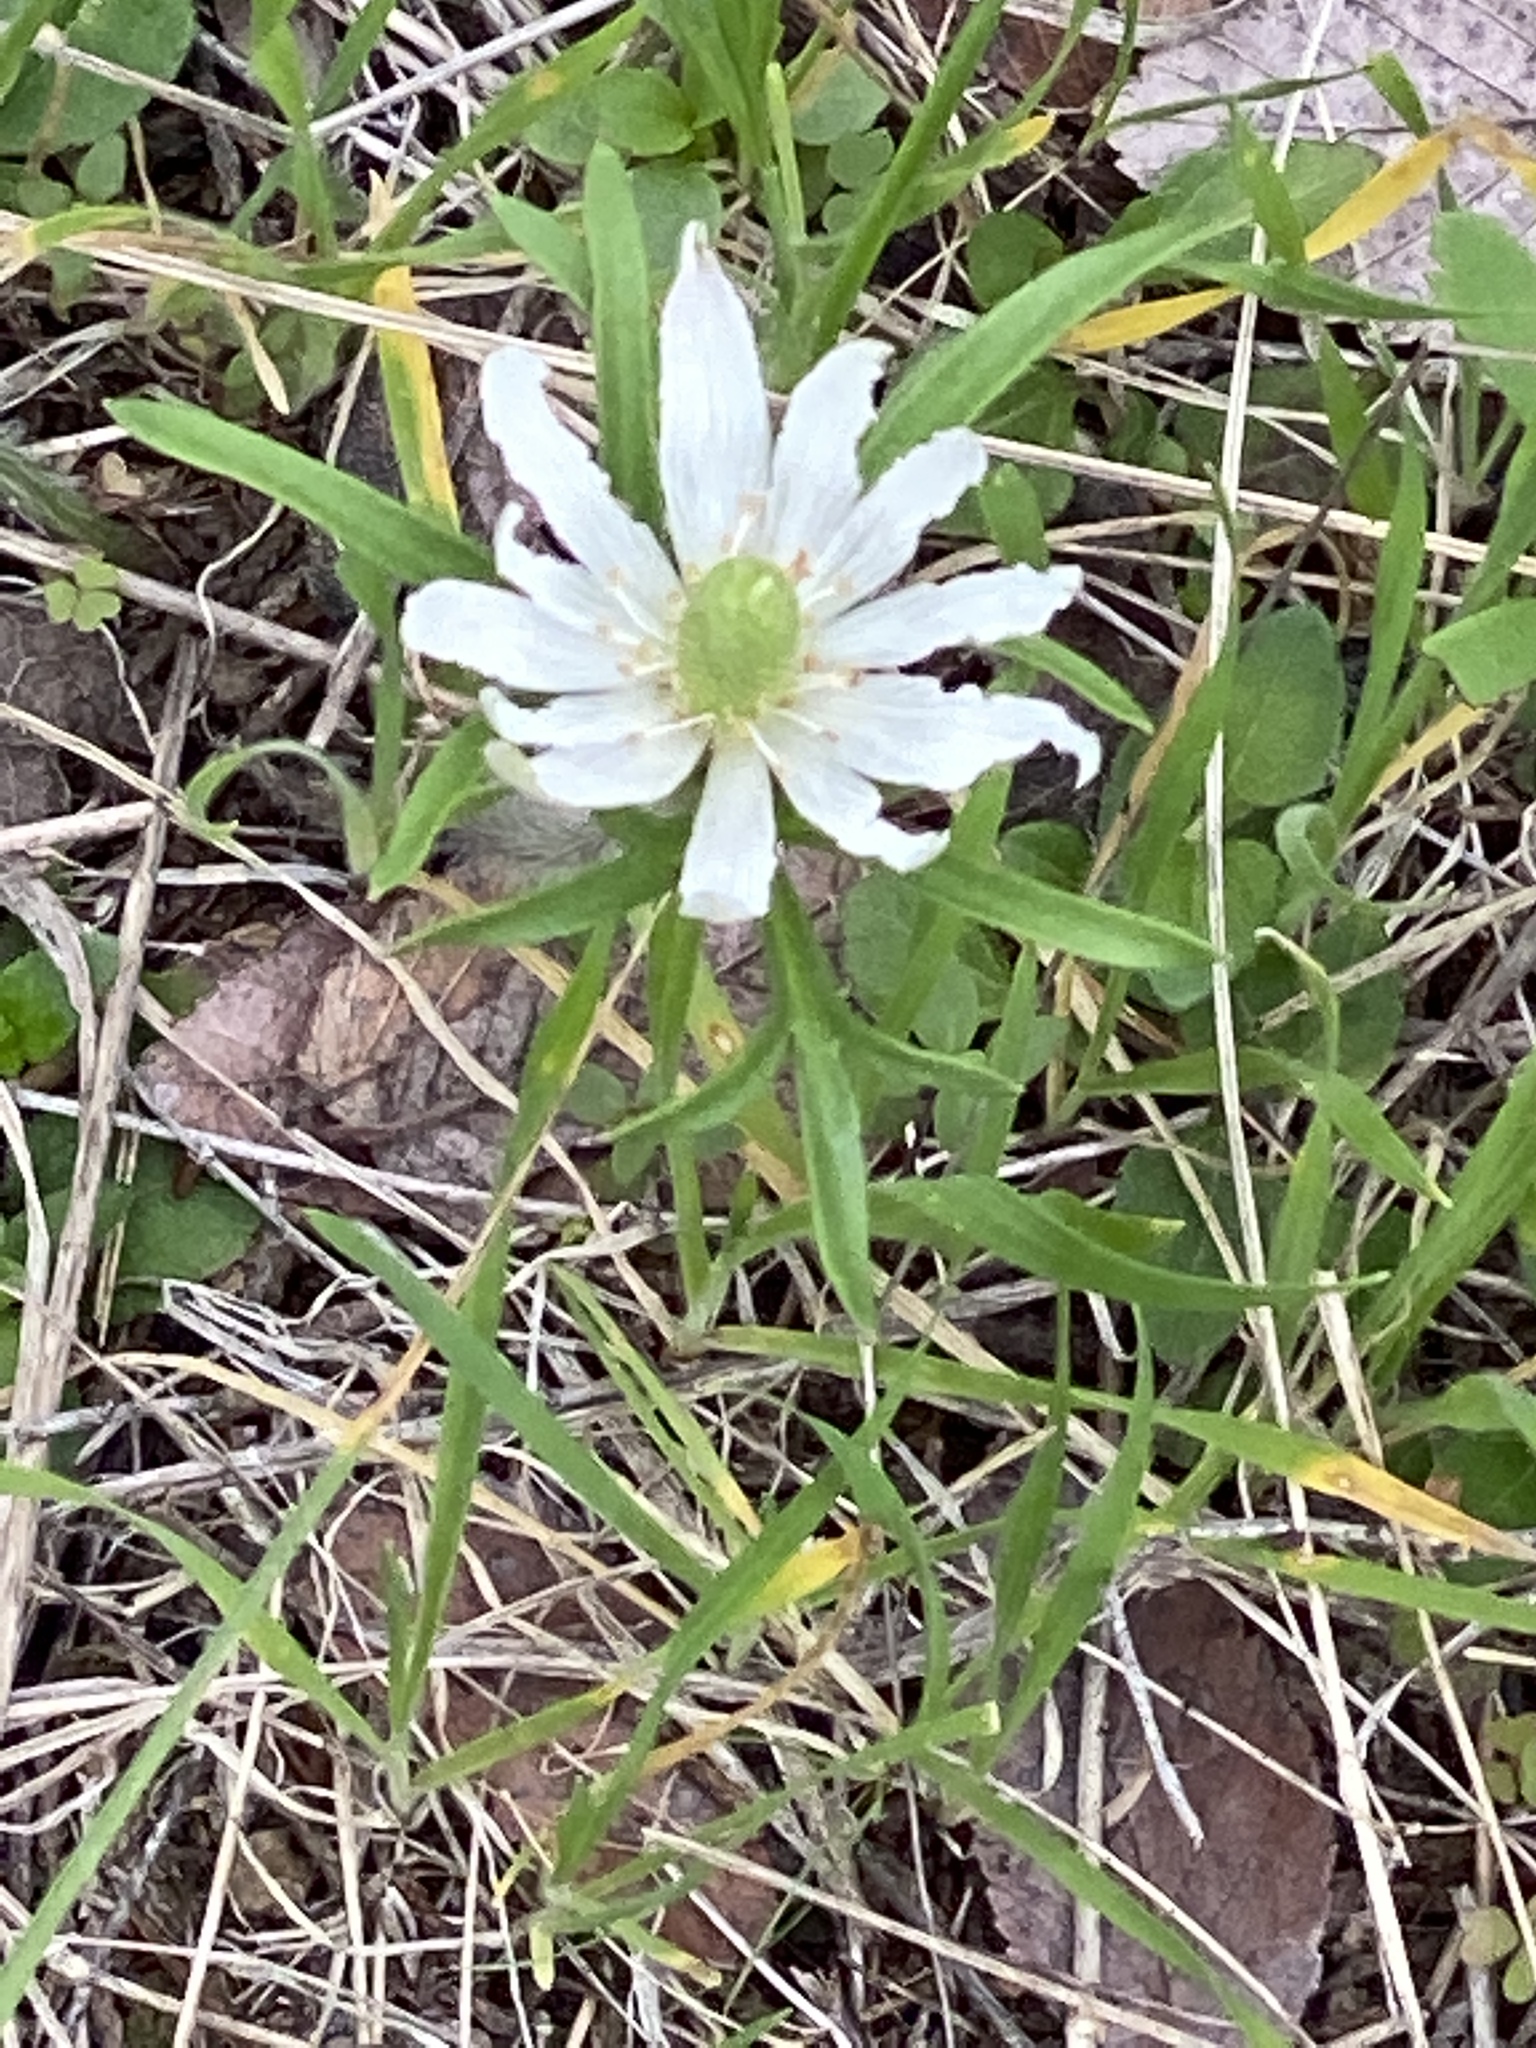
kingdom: Plantae
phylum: Tracheophyta
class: Magnoliopsida
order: Ranunculales
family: Ranunculaceae
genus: Anemone
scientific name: Anemone berlandieri
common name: Ten-petal anemone
